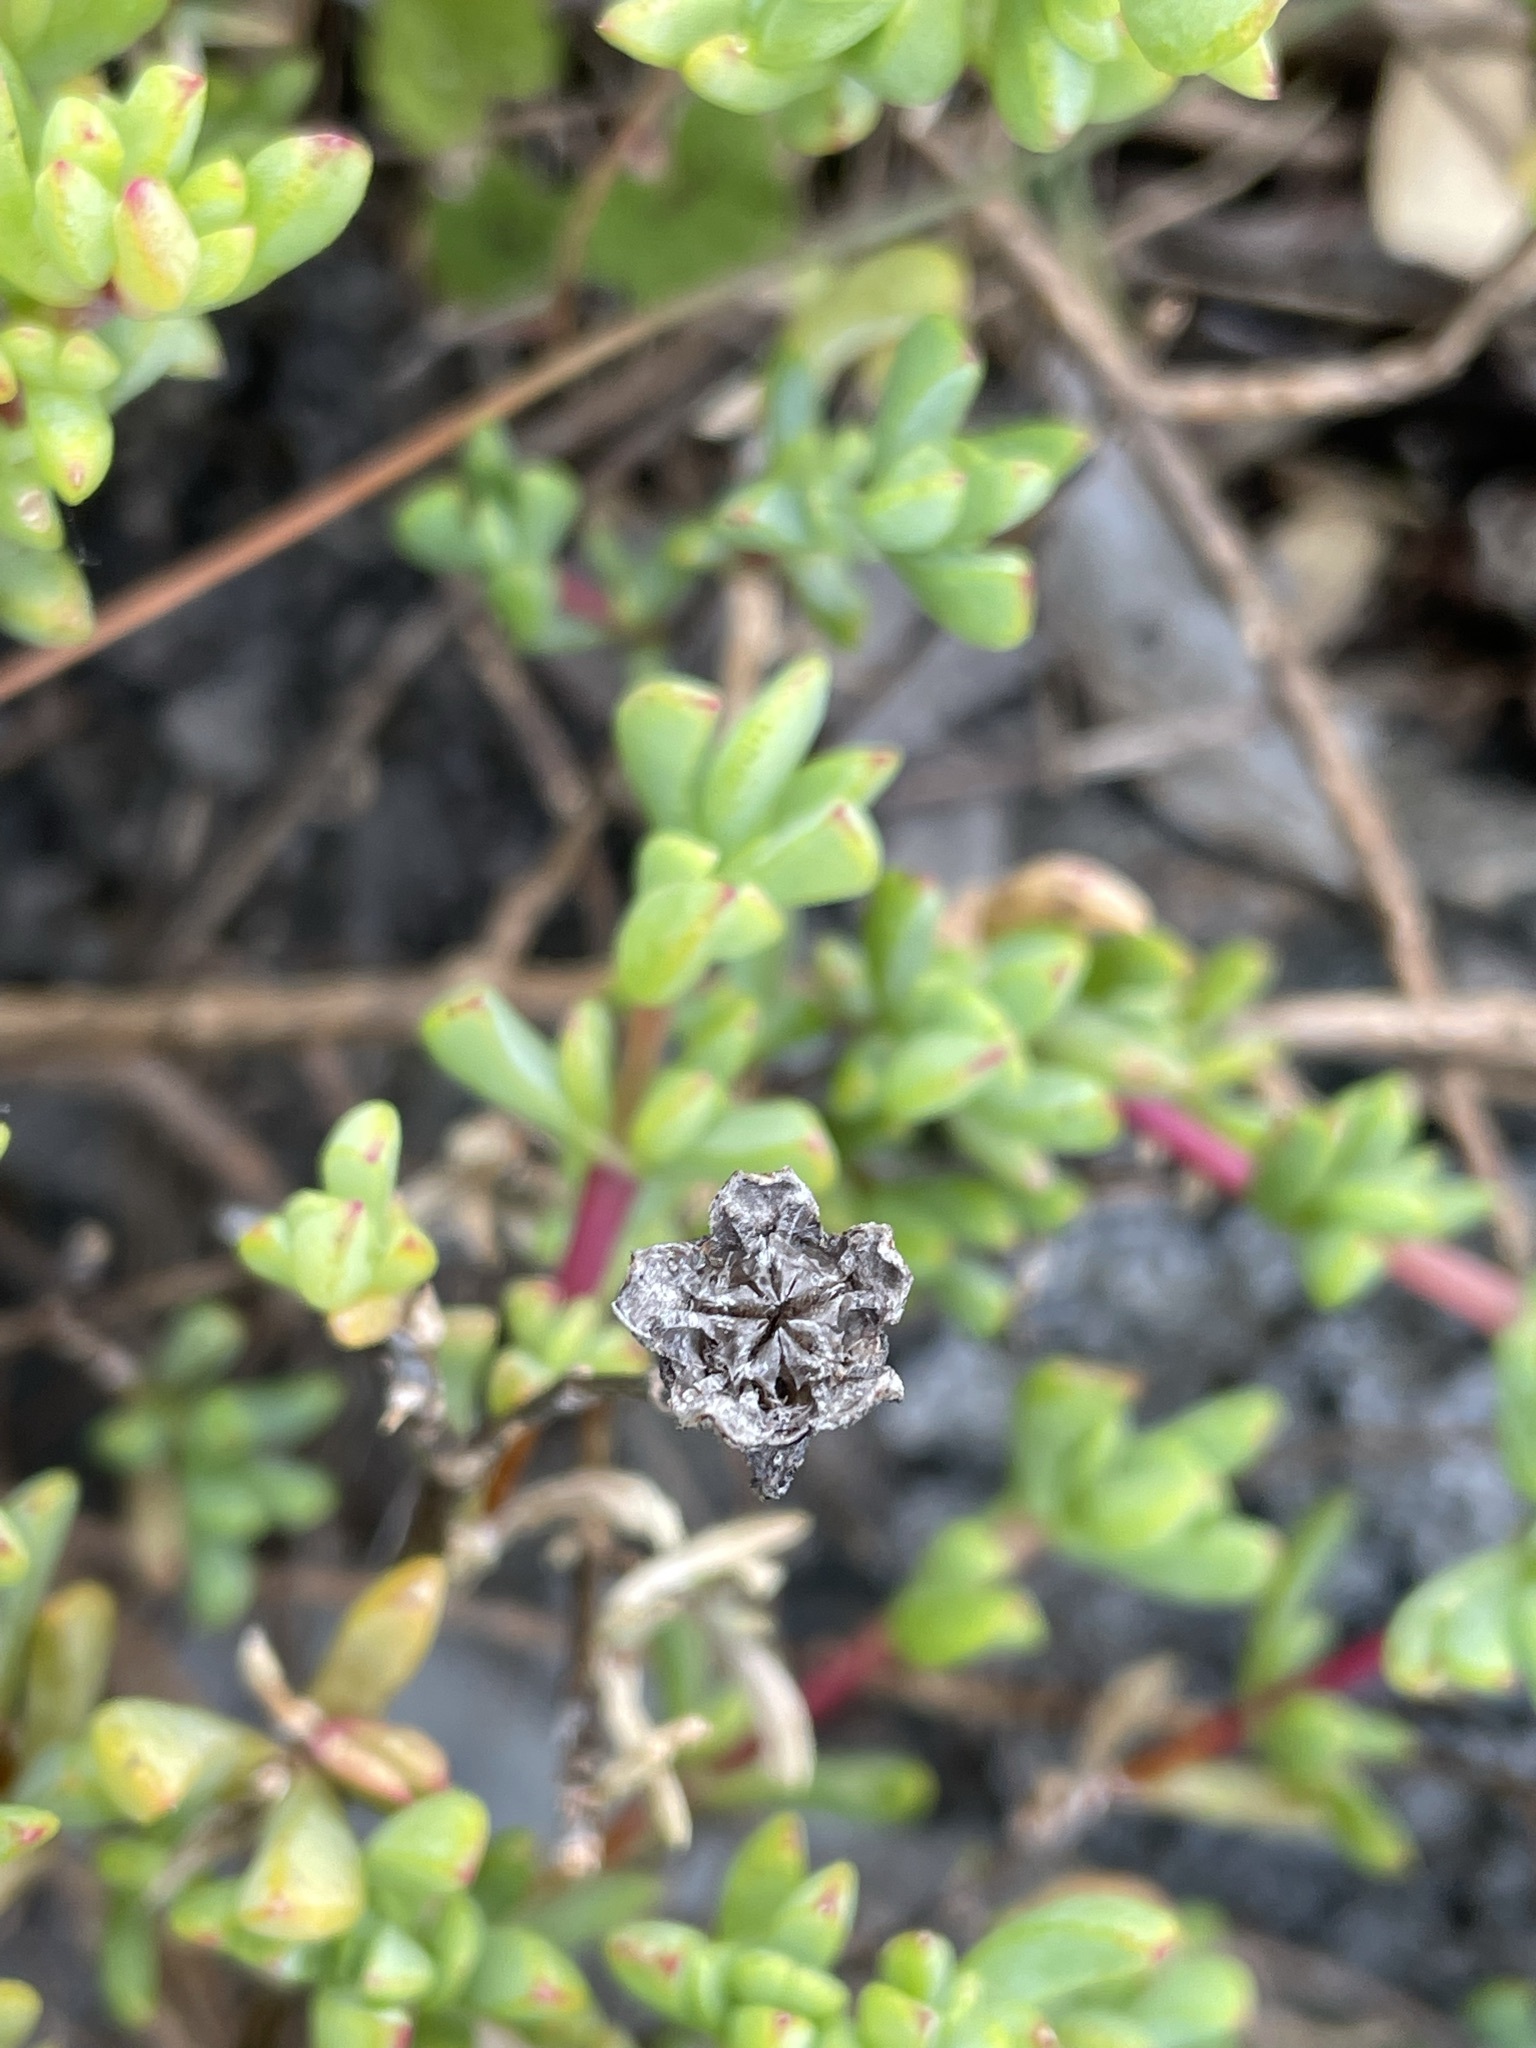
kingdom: Plantae
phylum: Tracheophyta
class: Magnoliopsida
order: Caryophyllales
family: Aizoaceae
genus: Oscularia
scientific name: Oscularia falciformis
